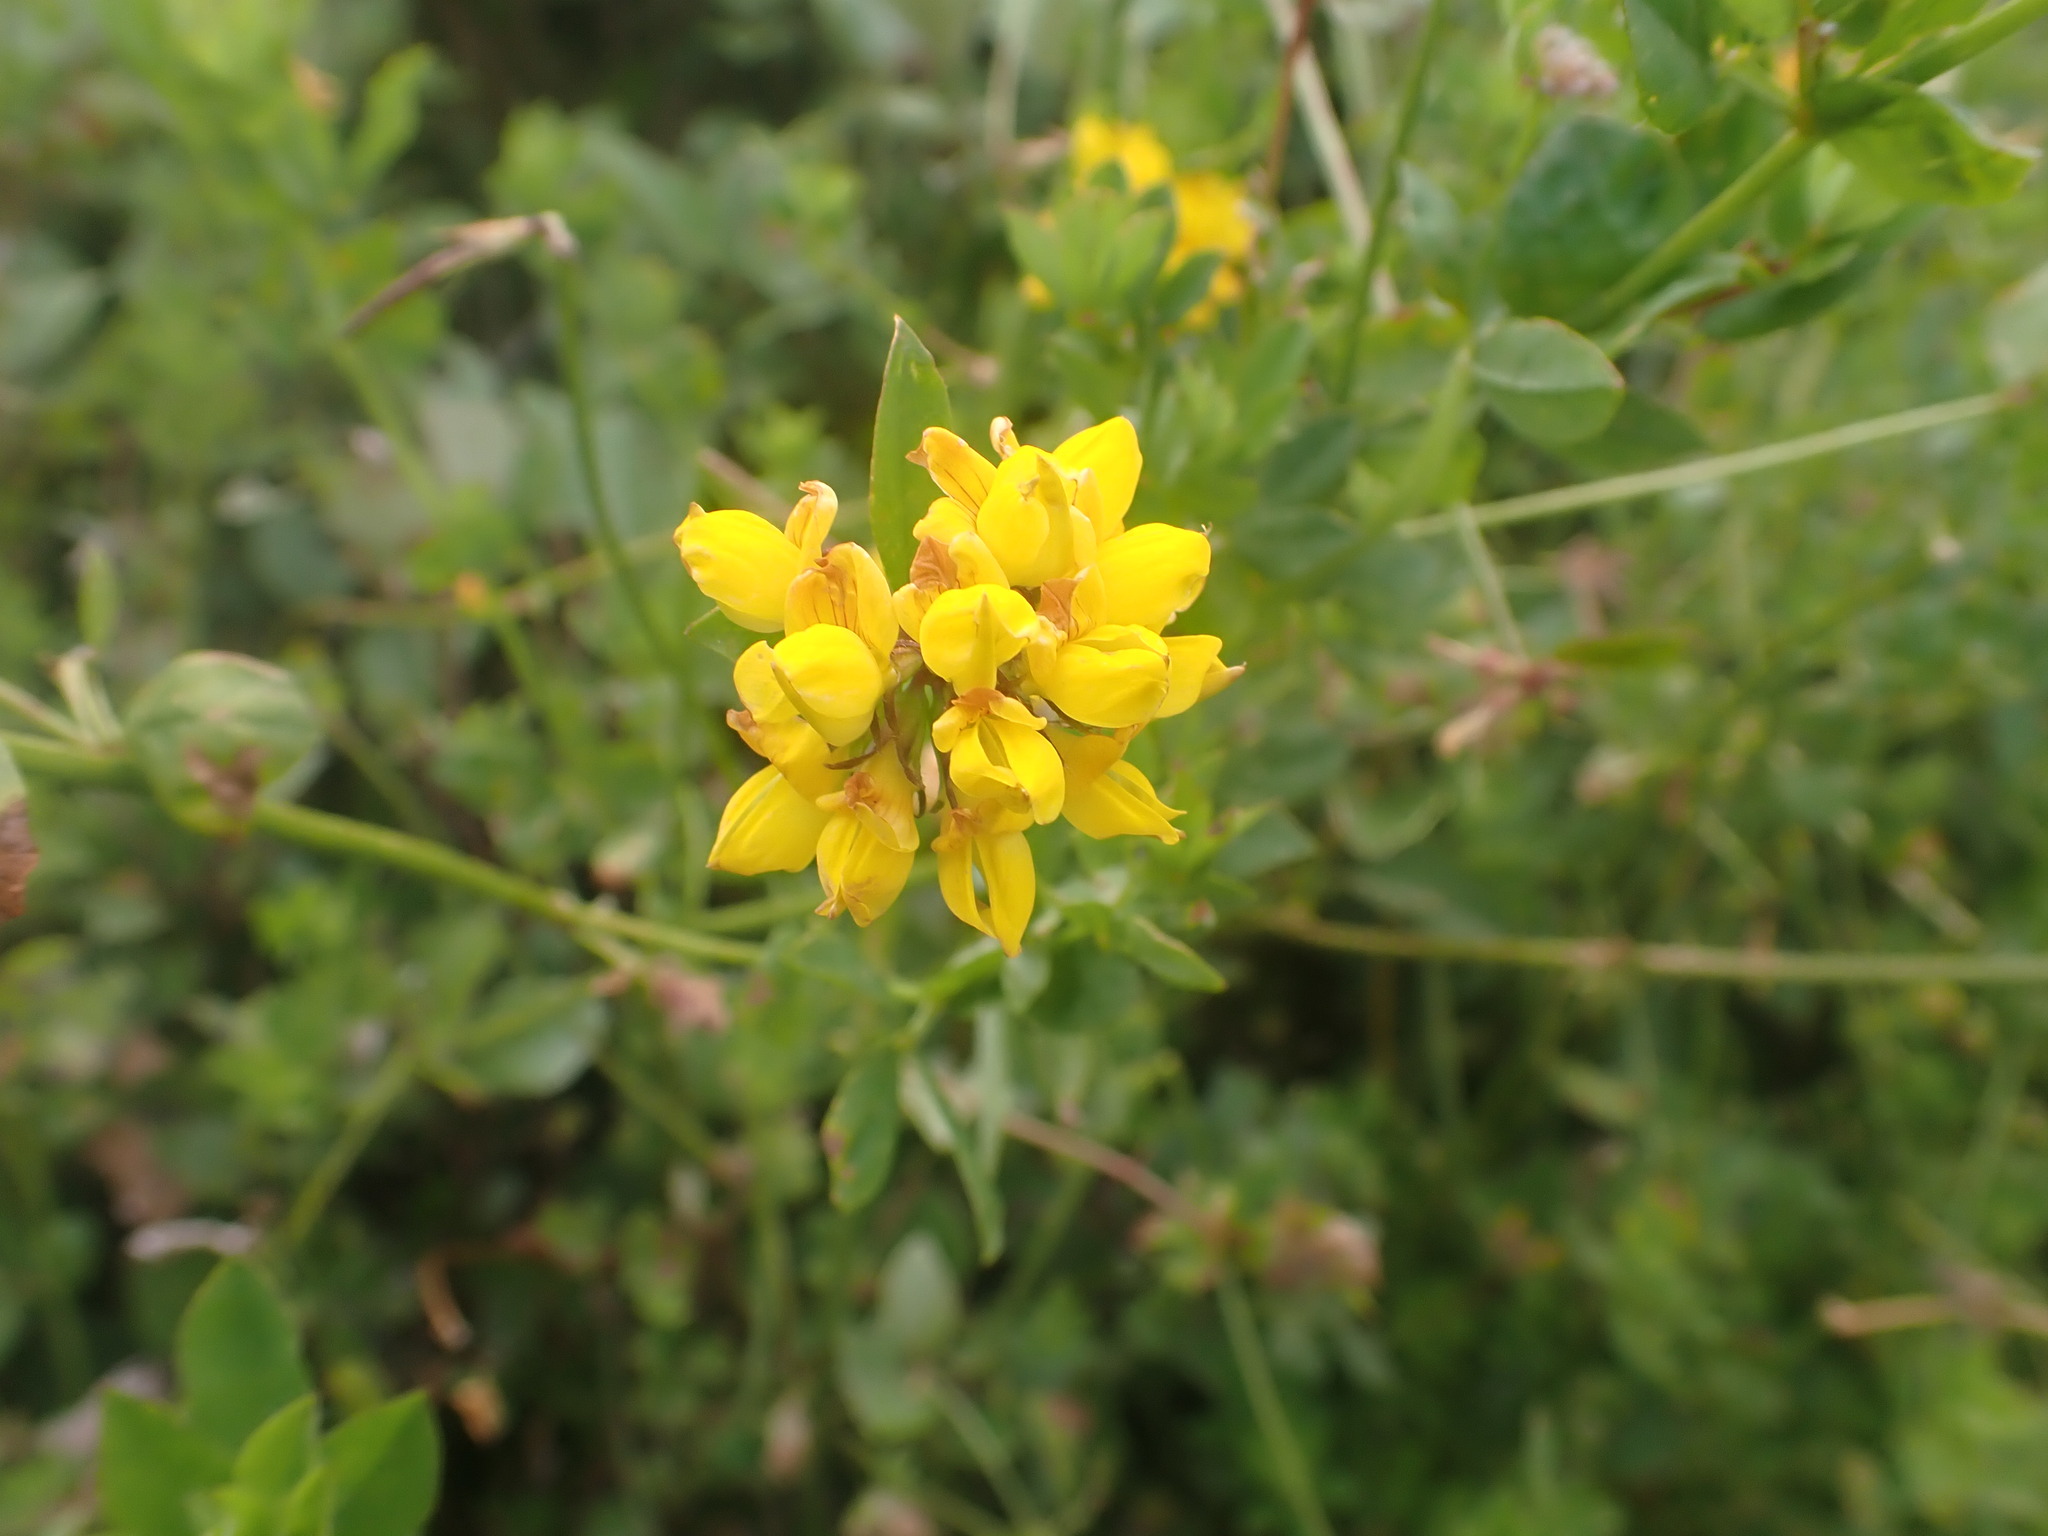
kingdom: Plantae
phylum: Tracheophyta
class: Magnoliopsida
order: Fabales
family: Fabaceae
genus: Lotus
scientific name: Lotus pedunculatus
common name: Greater birdsfoot-trefoil
